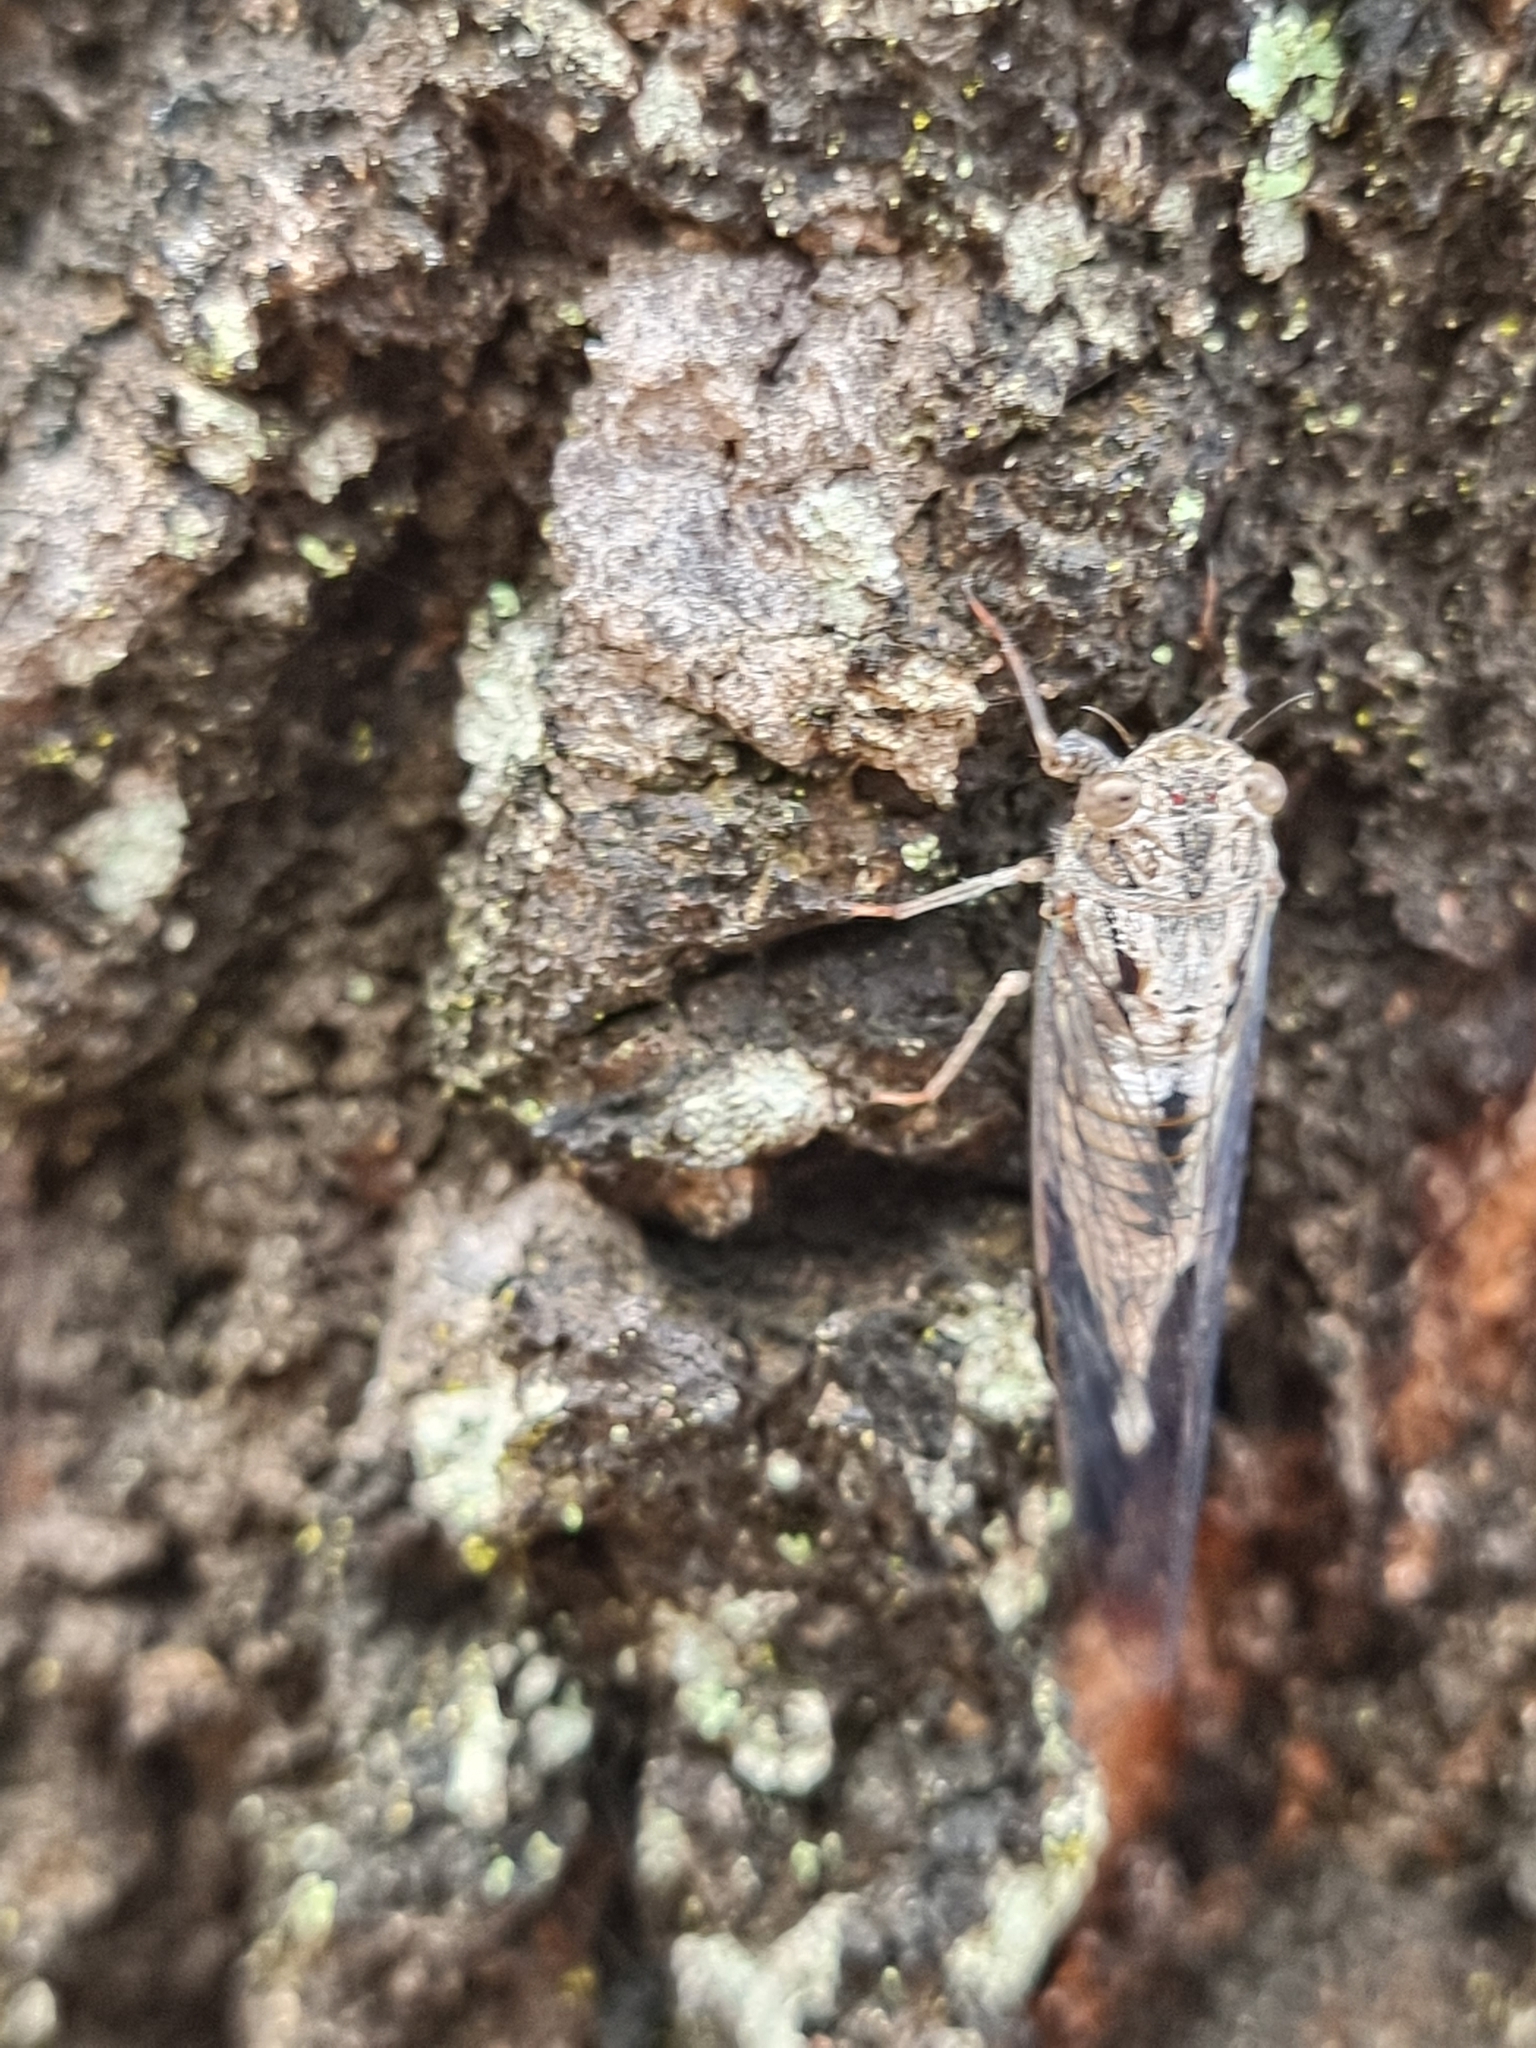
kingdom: Animalia
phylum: Arthropoda
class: Insecta
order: Hemiptera
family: Cicadidae
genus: Telmapsalta
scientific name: Telmapsalta hackeri
